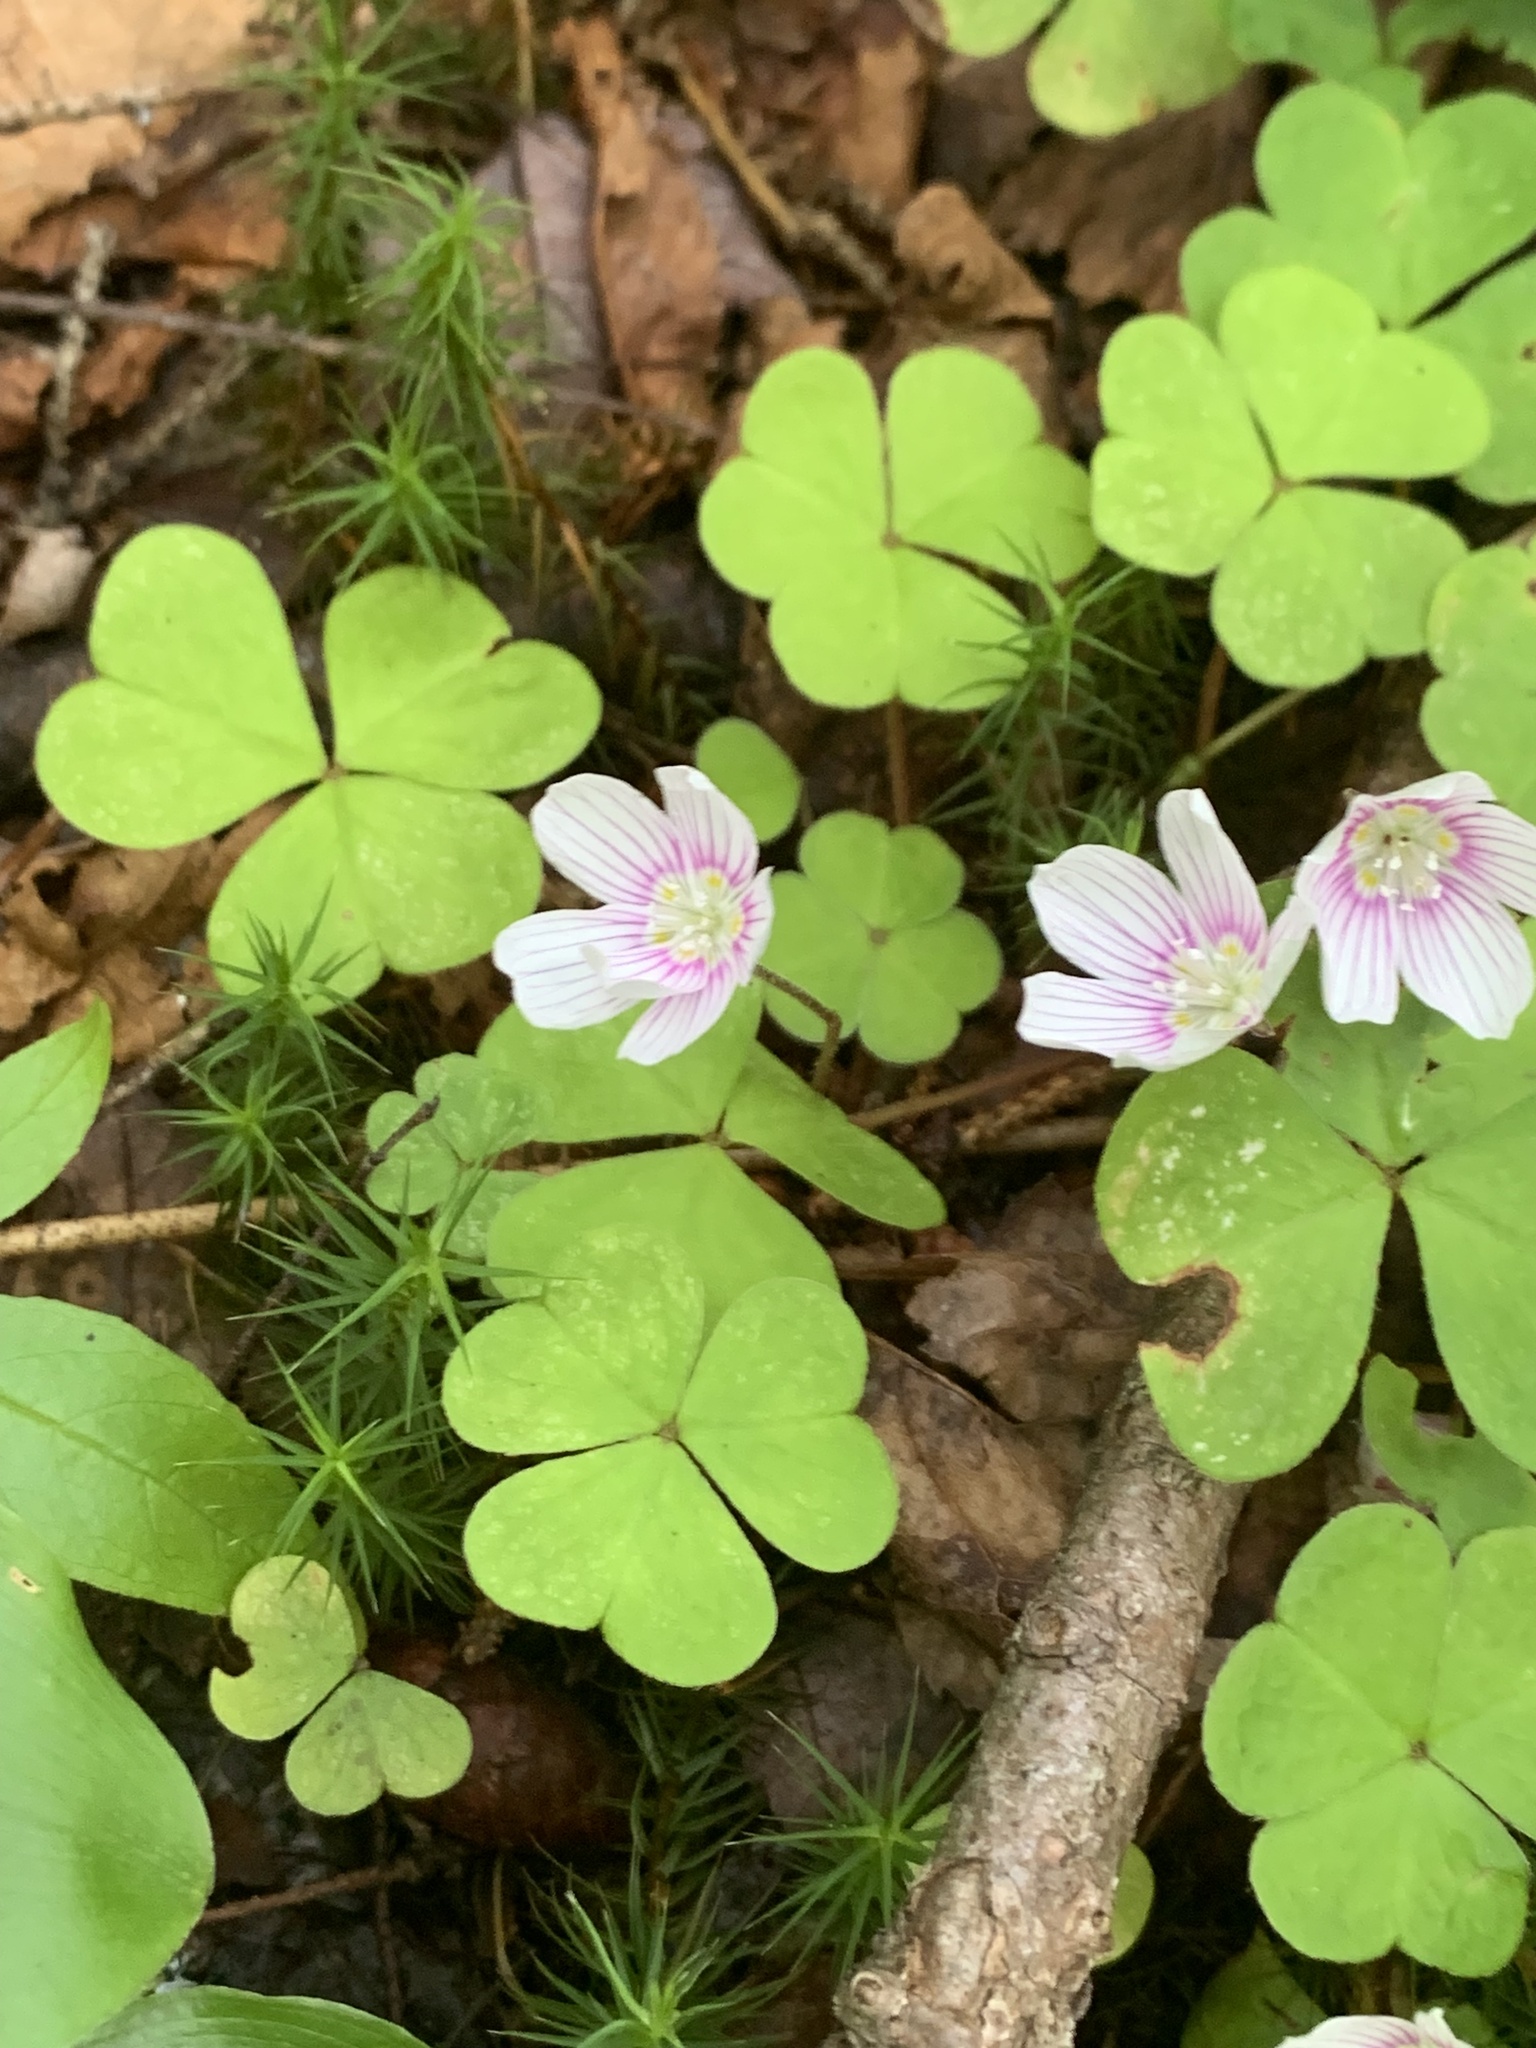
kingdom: Plantae
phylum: Tracheophyta
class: Magnoliopsida
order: Oxalidales
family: Oxalidaceae
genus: Oxalis
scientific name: Oxalis montana
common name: American wood-sorrel
